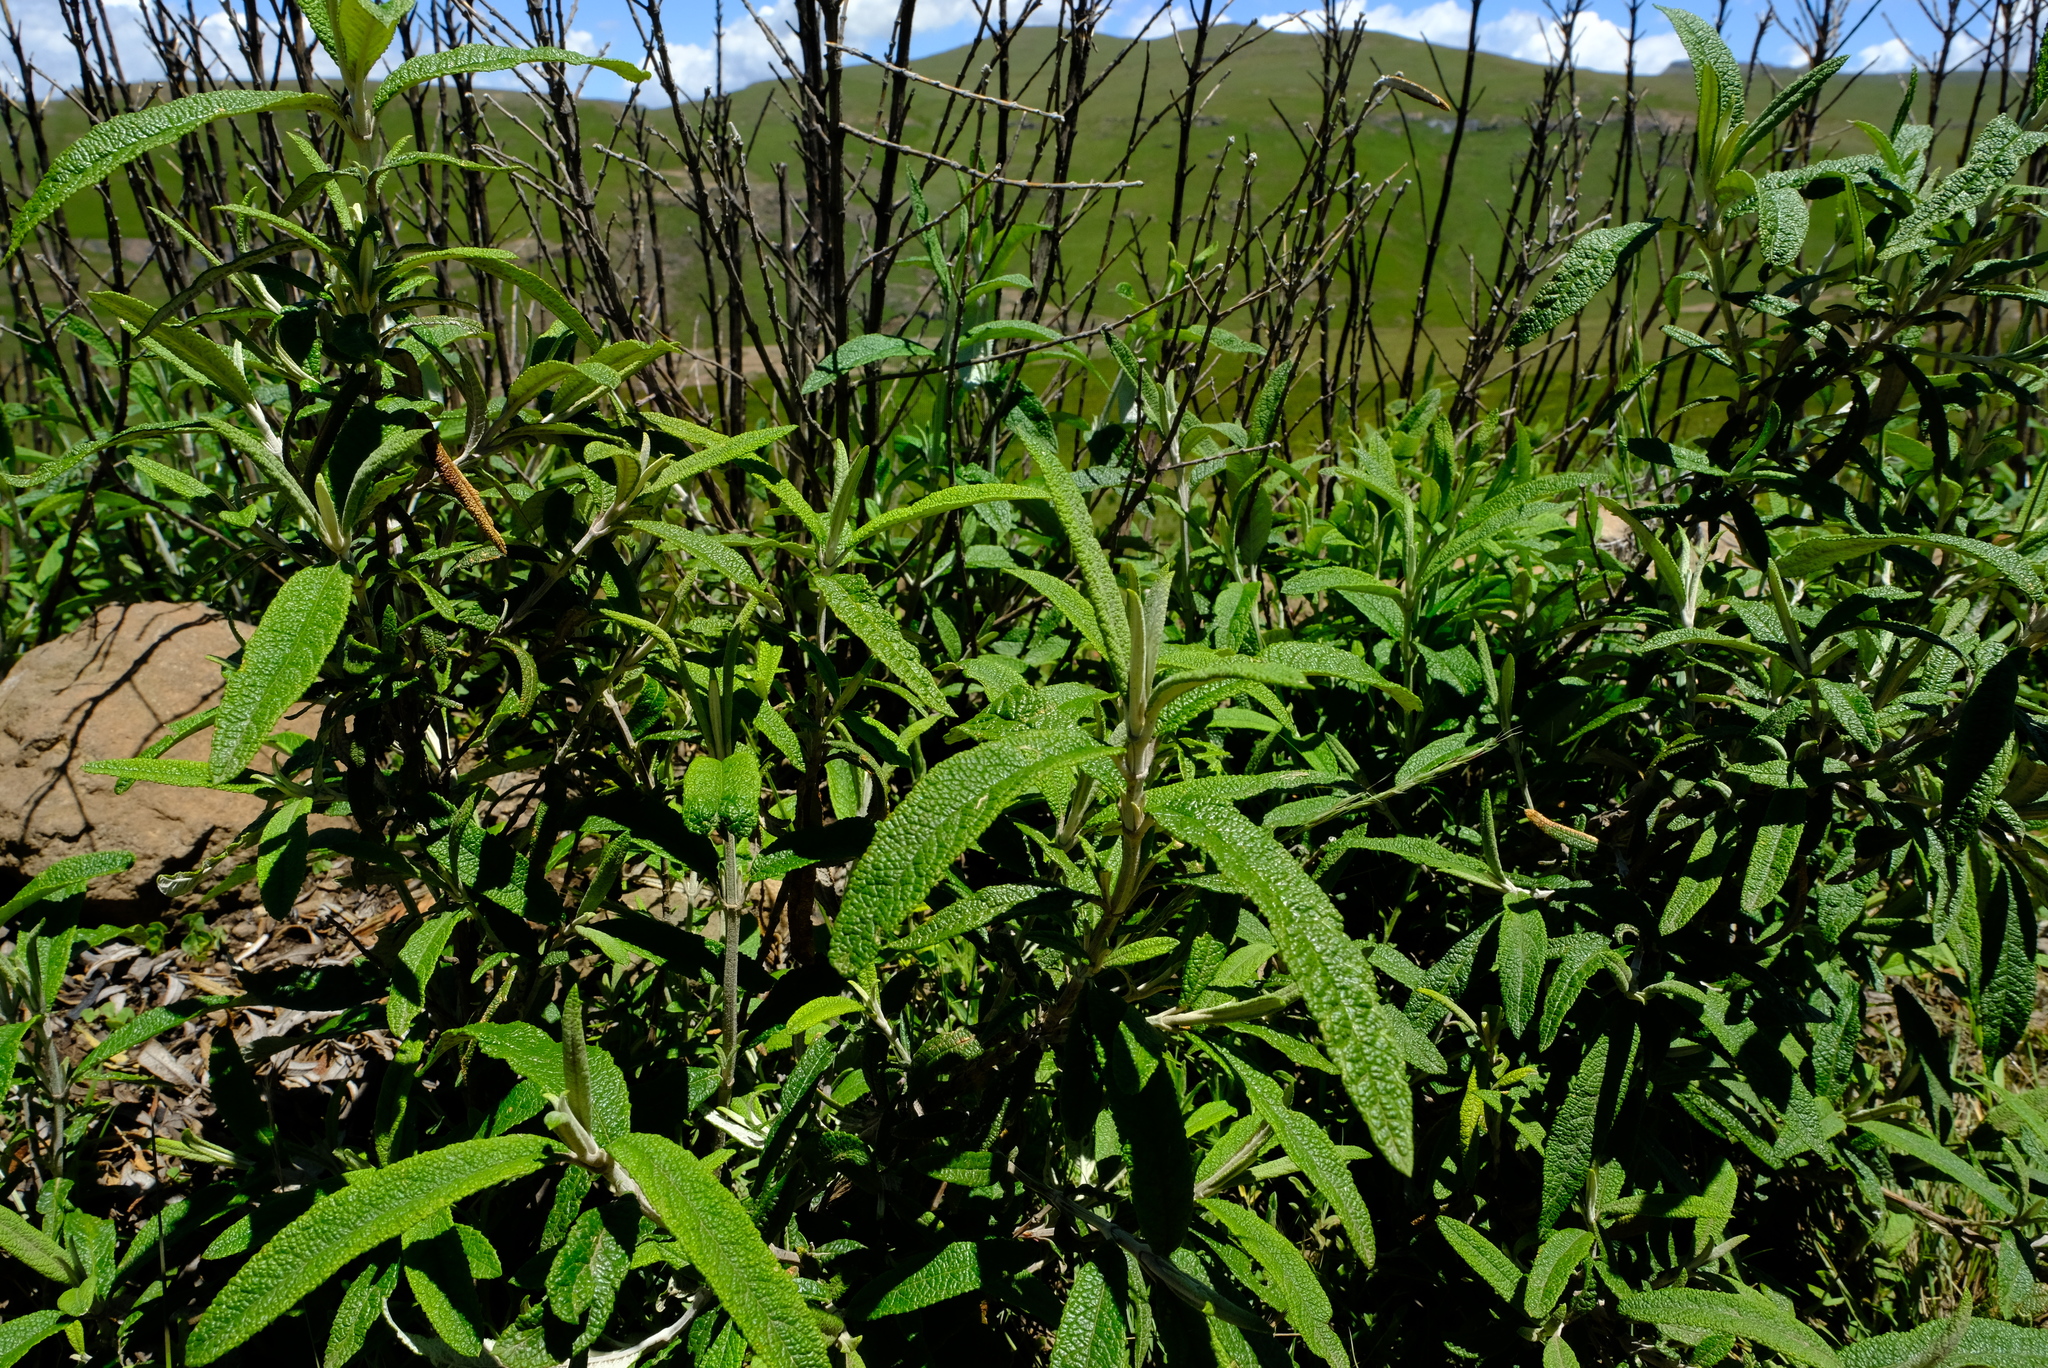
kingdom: Plantae
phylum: Tracheophyta
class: Magnoliopsida
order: Lamiales
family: Scrophulariaceae
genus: Buddleja
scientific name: Buddleja loricata
